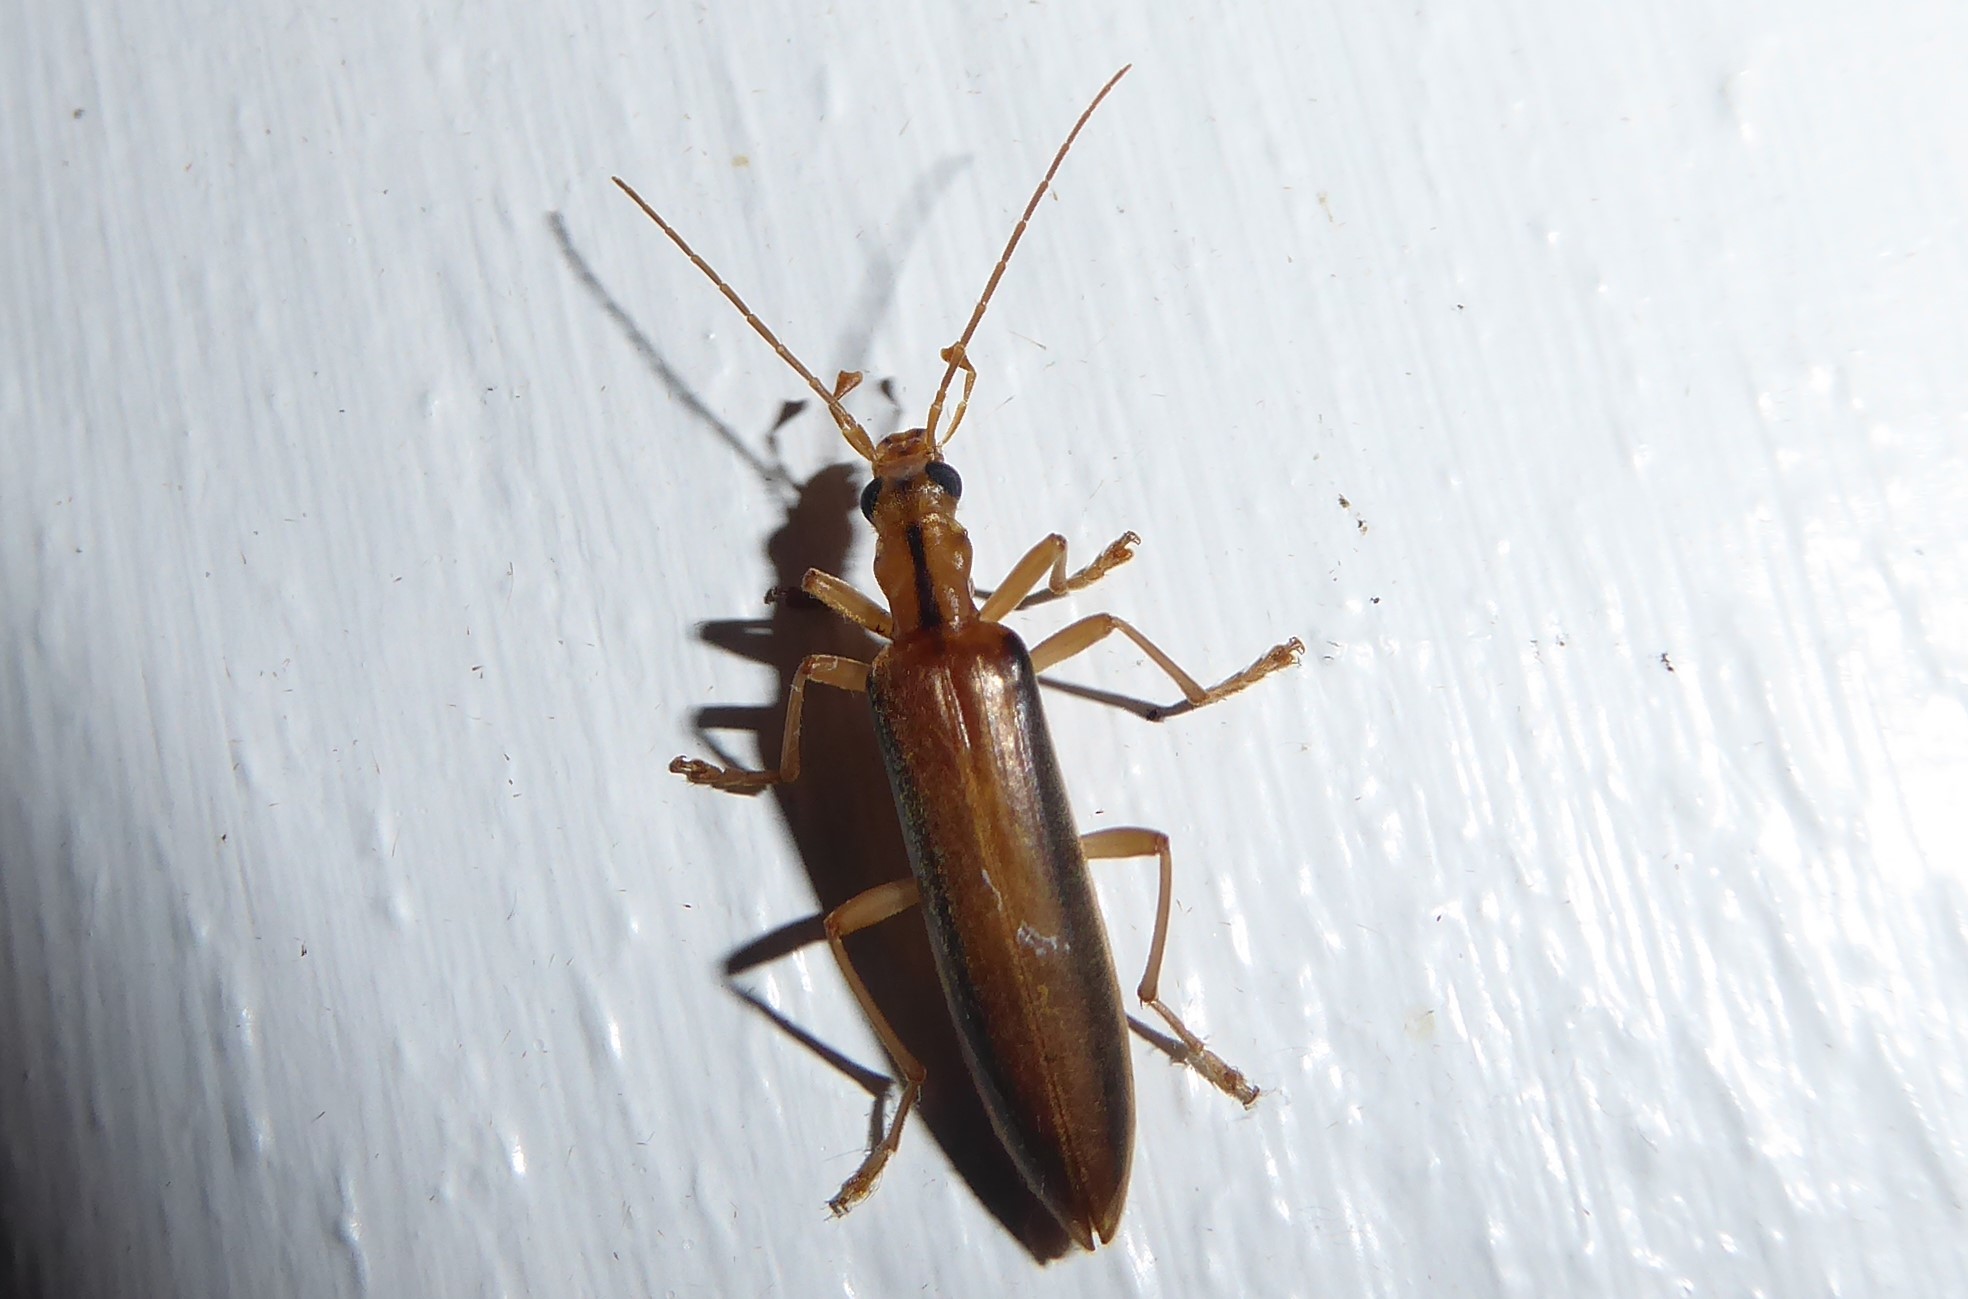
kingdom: Animalia
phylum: Arthropoda
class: Insecta
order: Coleoptera
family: Oedemeridae
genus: Thelyphassa
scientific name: Thelyphassa
